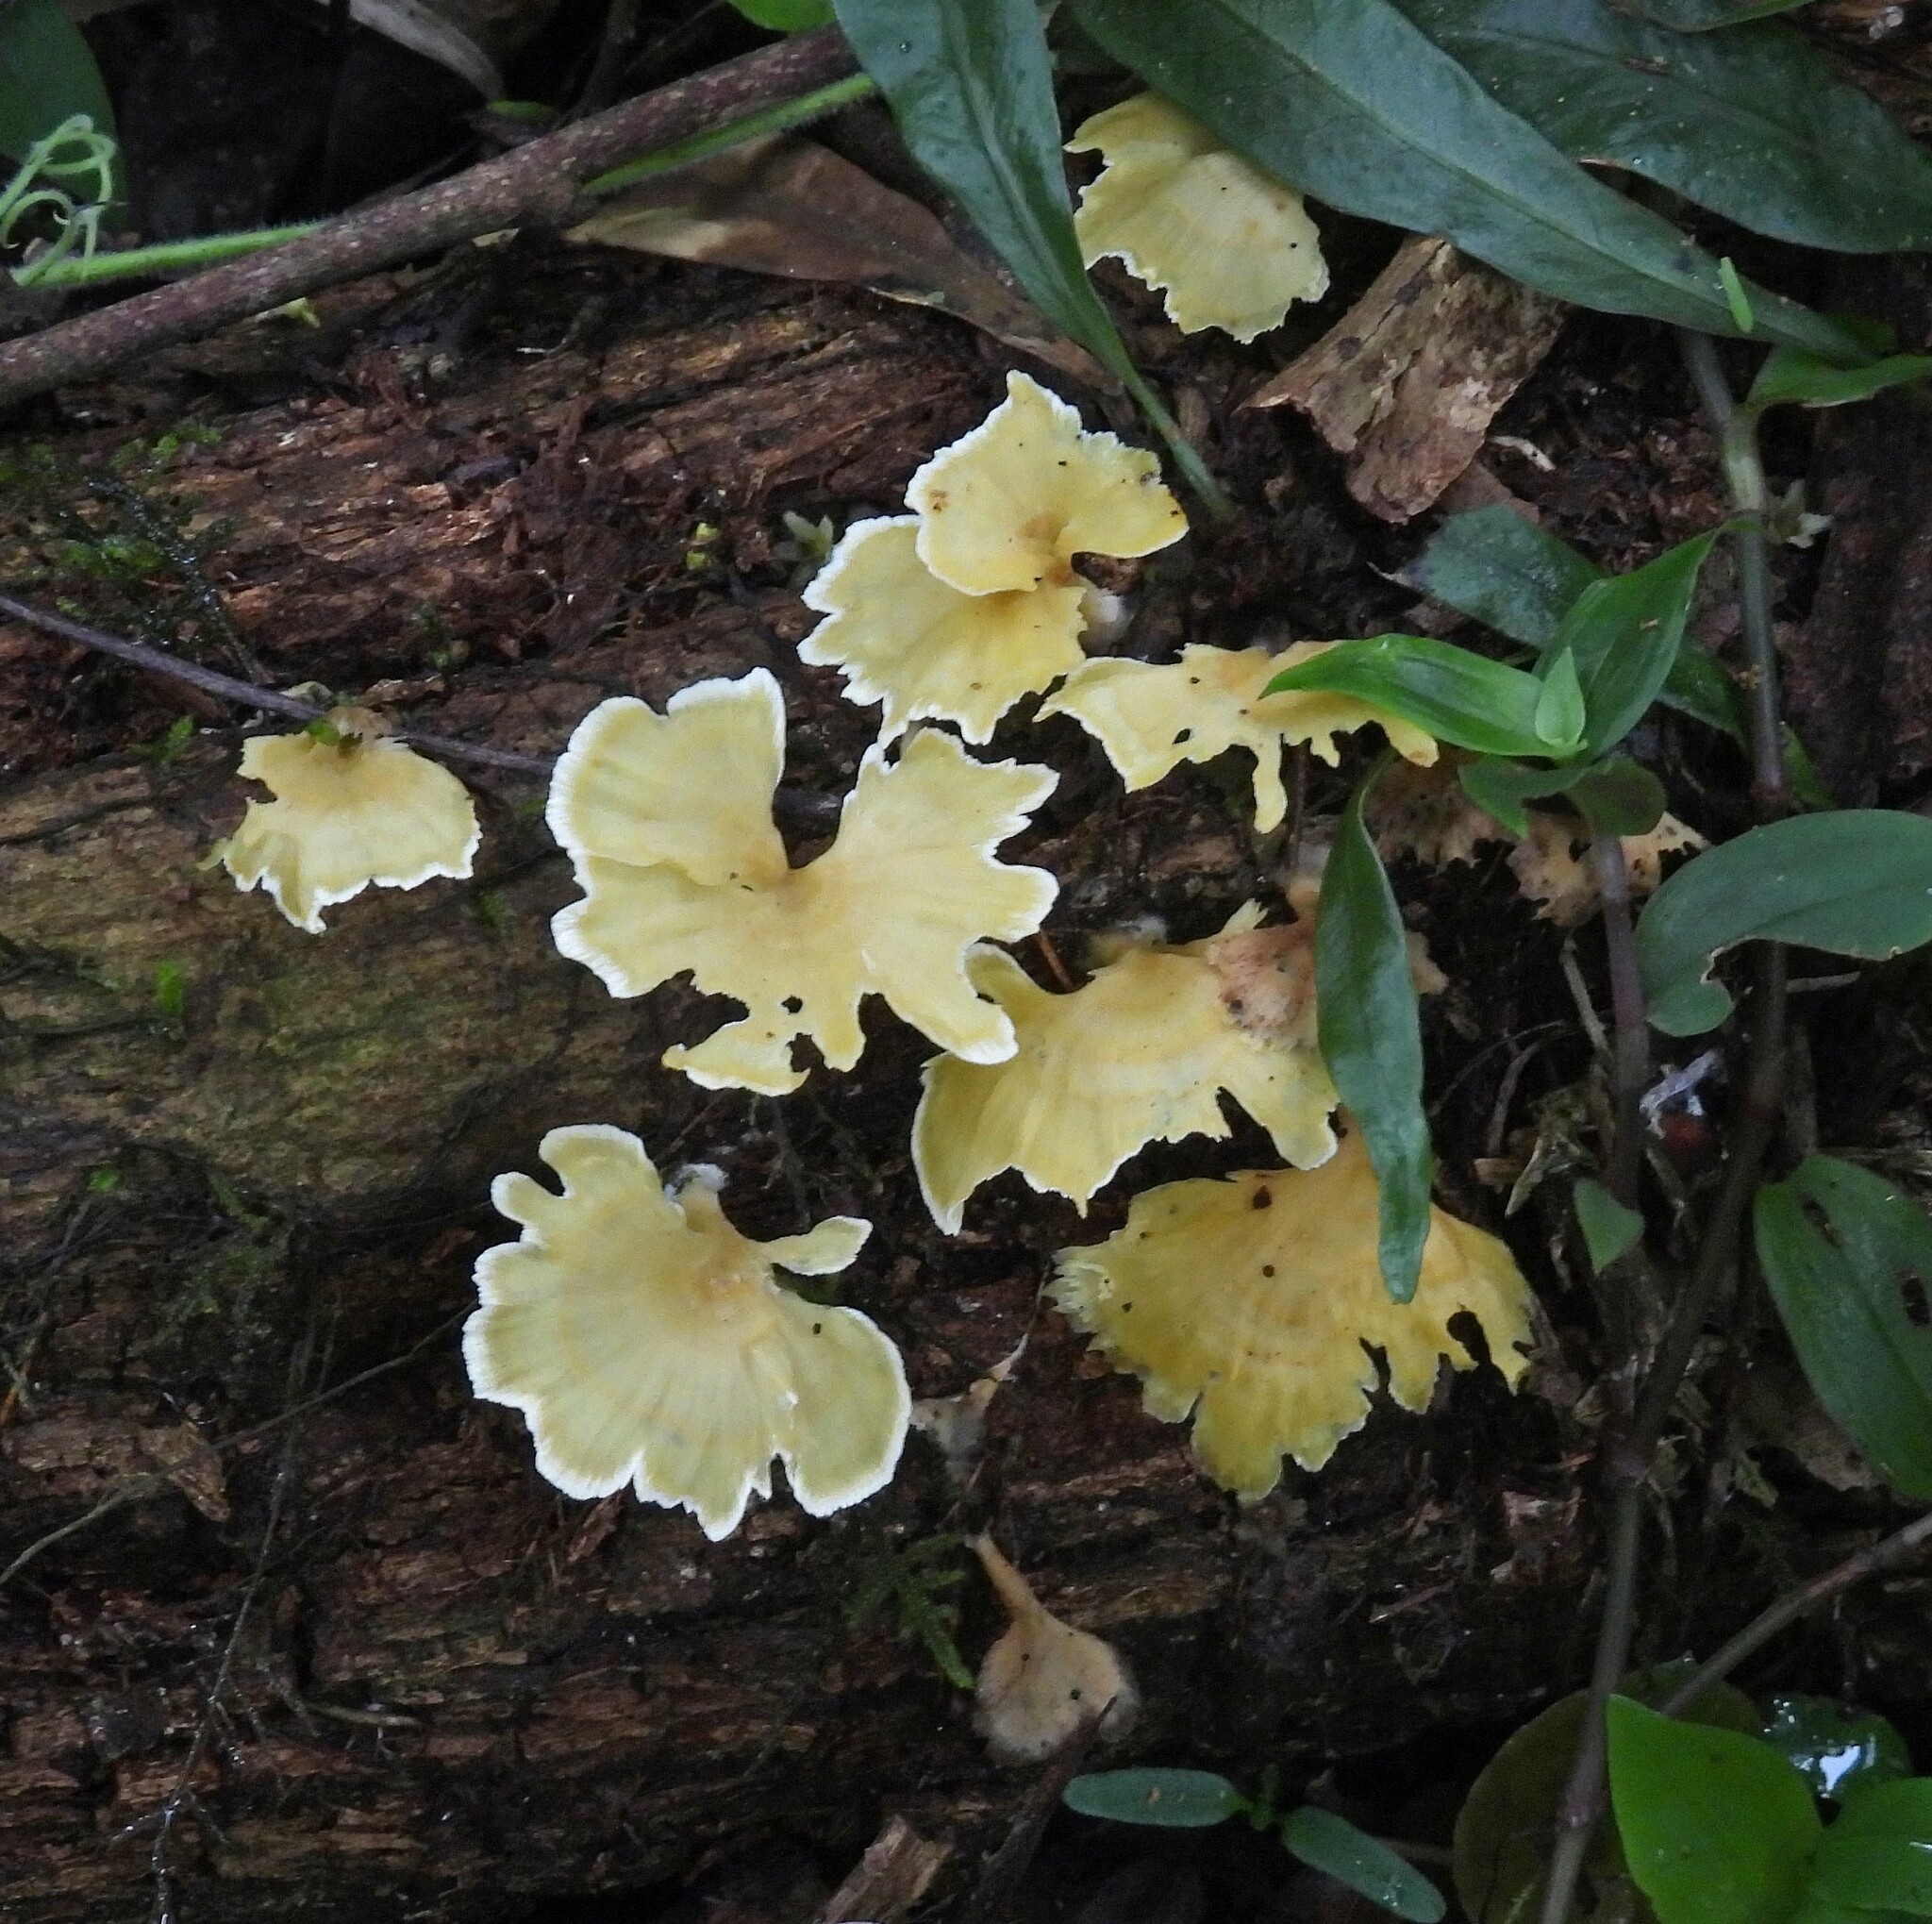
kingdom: Fungi
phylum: Basidiomycota
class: Agaricomycetes
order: Hymenochaetales
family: Rickenellaceae
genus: Cotylidia
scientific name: Cotylidia aurantiaca
